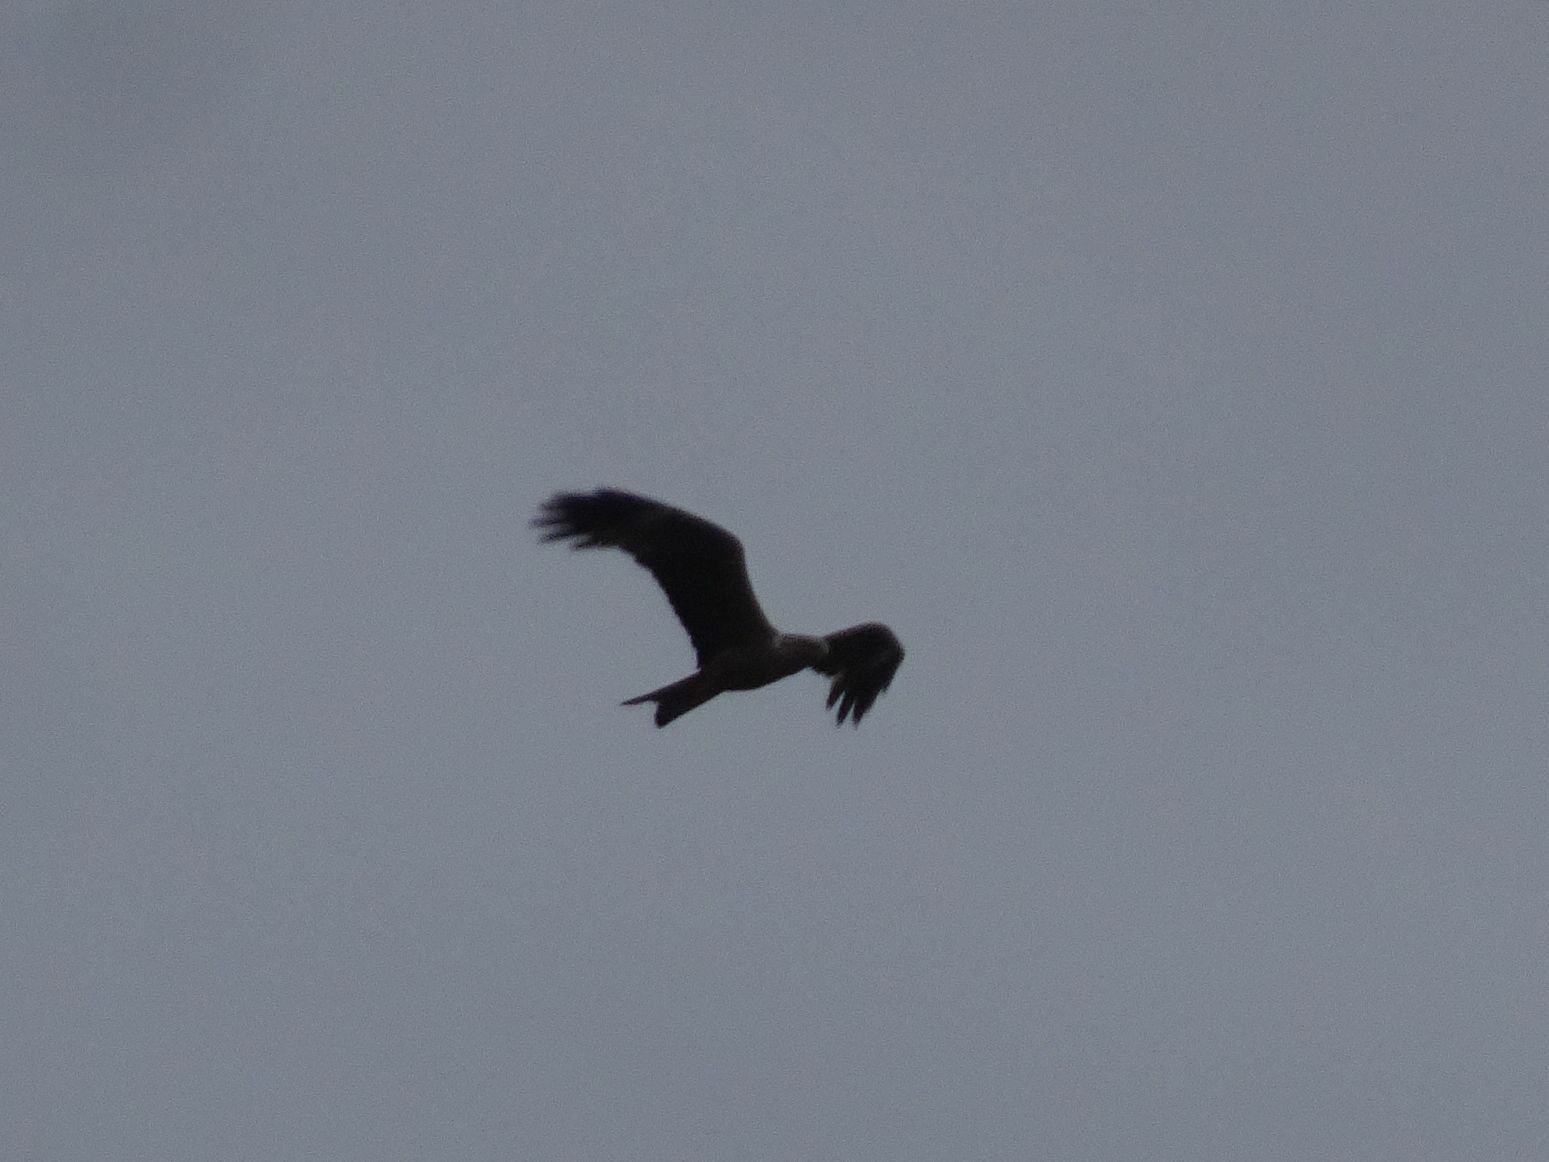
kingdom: Animalia
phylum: Chordata
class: Aves
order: Accipitriformes
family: Accipitridae
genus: Milvus
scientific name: Milvus migrans
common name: Black kite
